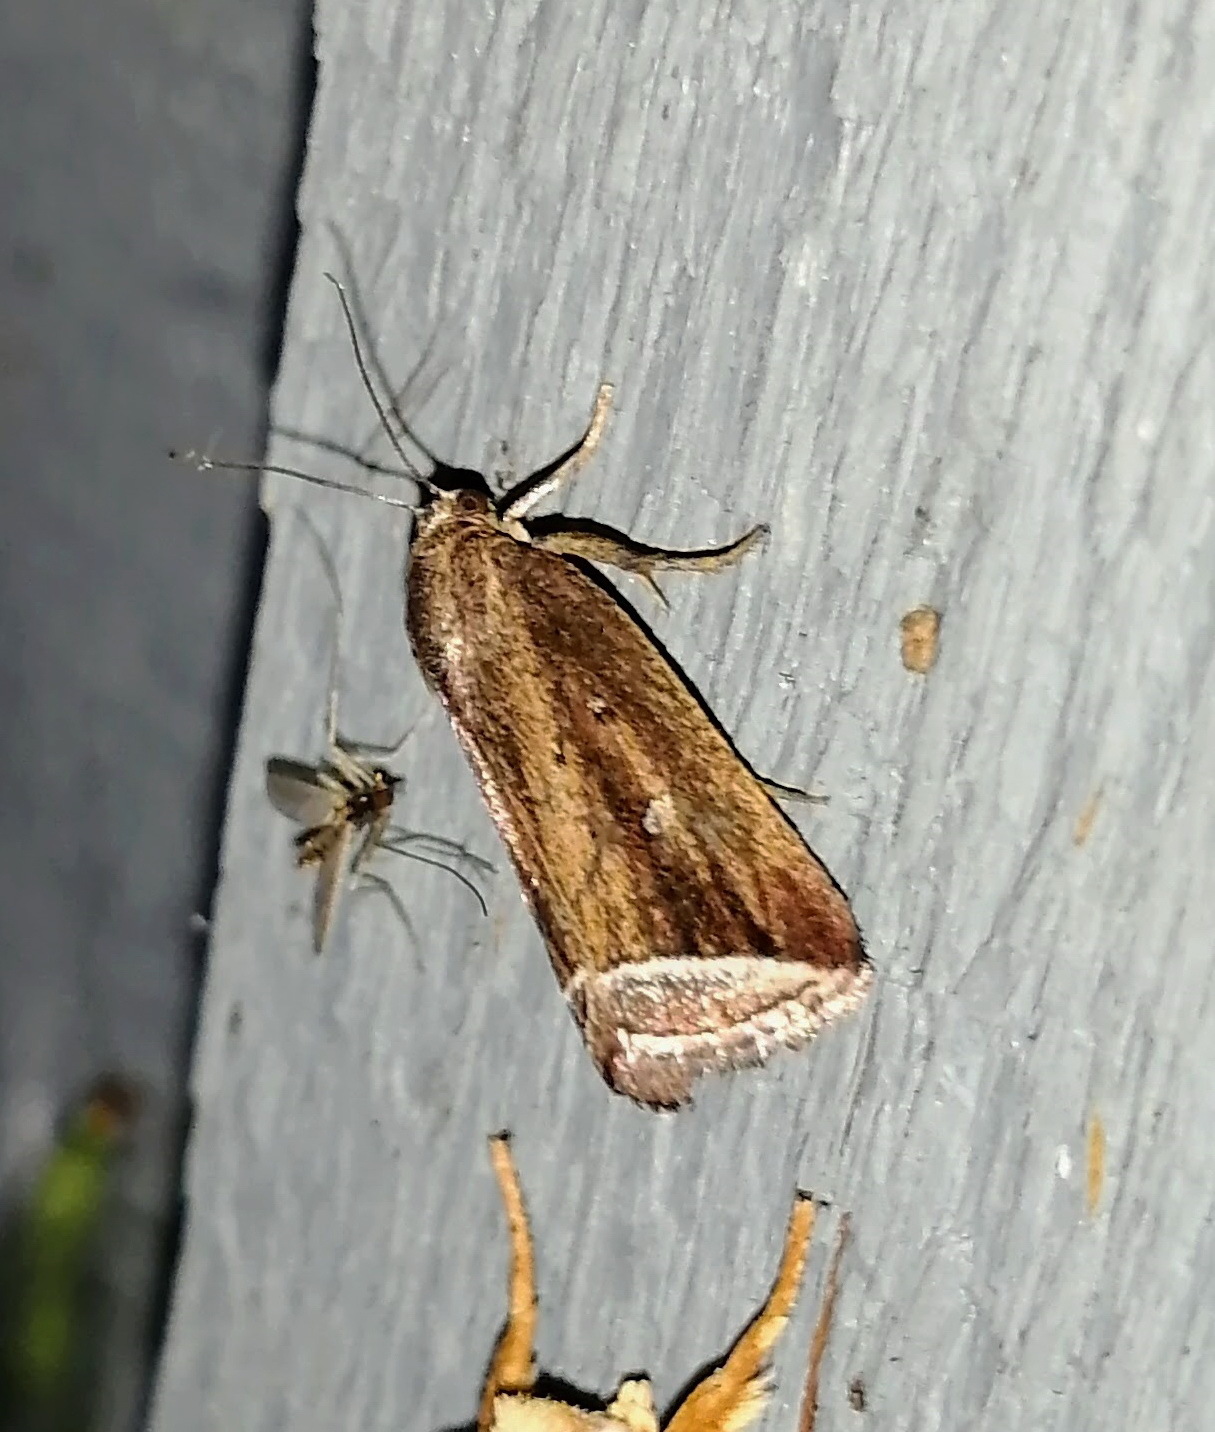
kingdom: Animalia
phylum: Arthropoda
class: Insecta
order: Lepidoptera
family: Erebidae
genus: Capis
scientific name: Capis curvata
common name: Curved halter moth
